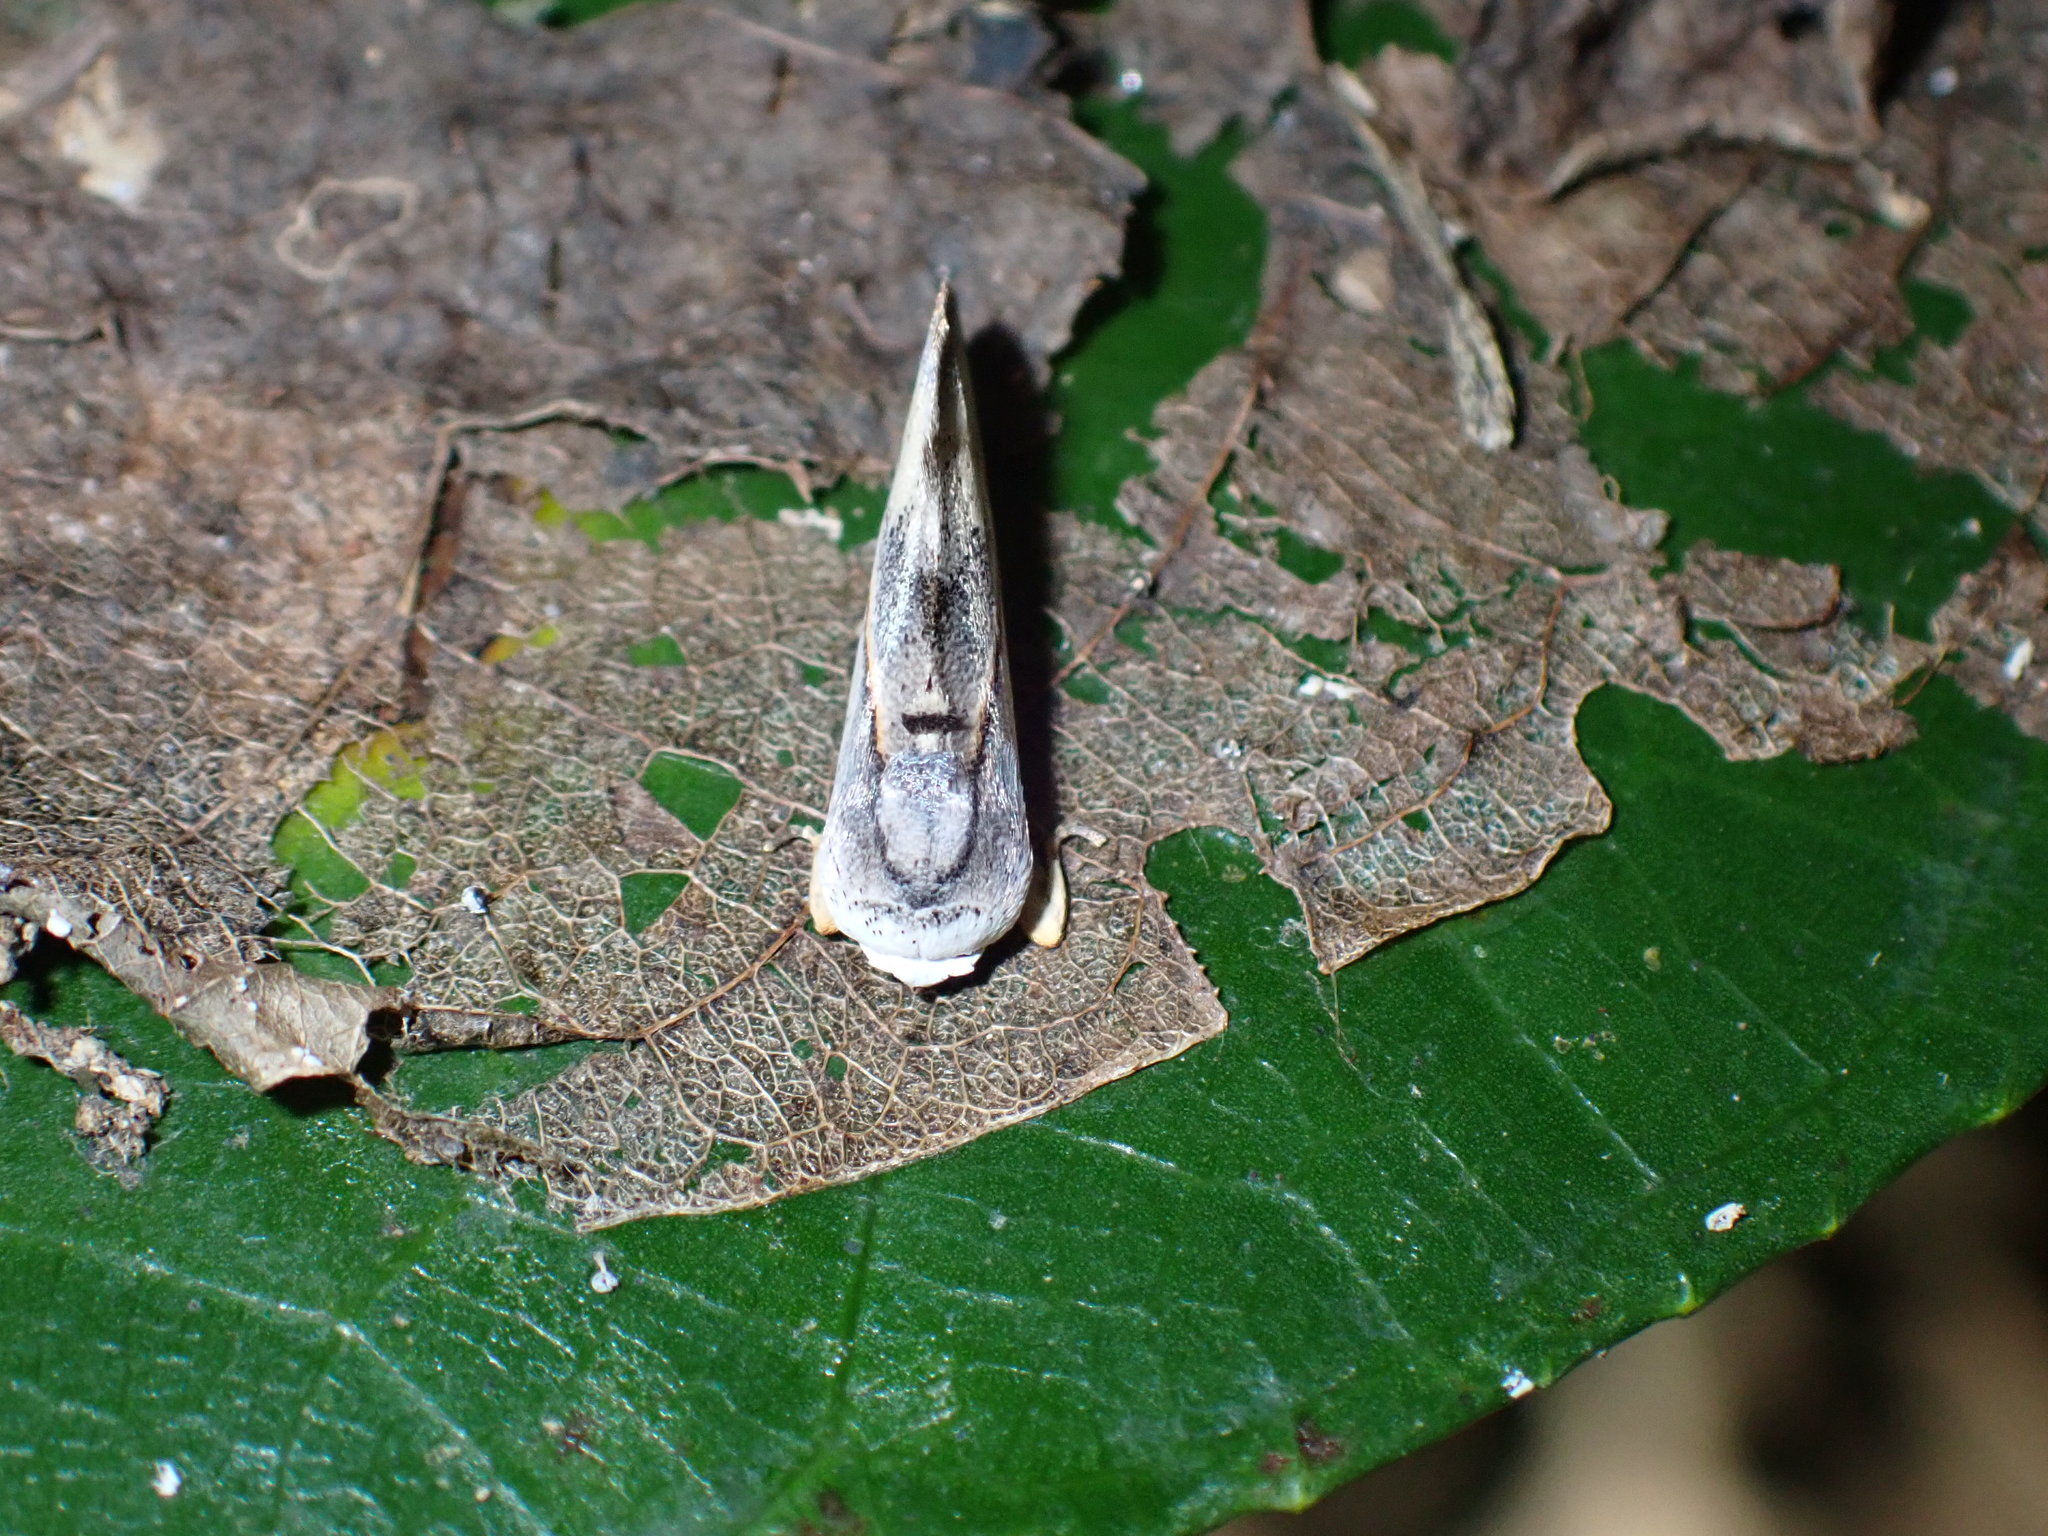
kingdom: Animalia
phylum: Arthropoda
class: Insecta
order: Lepidoptera
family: Nolidae
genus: Urbona
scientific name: Urbona leucophaea
